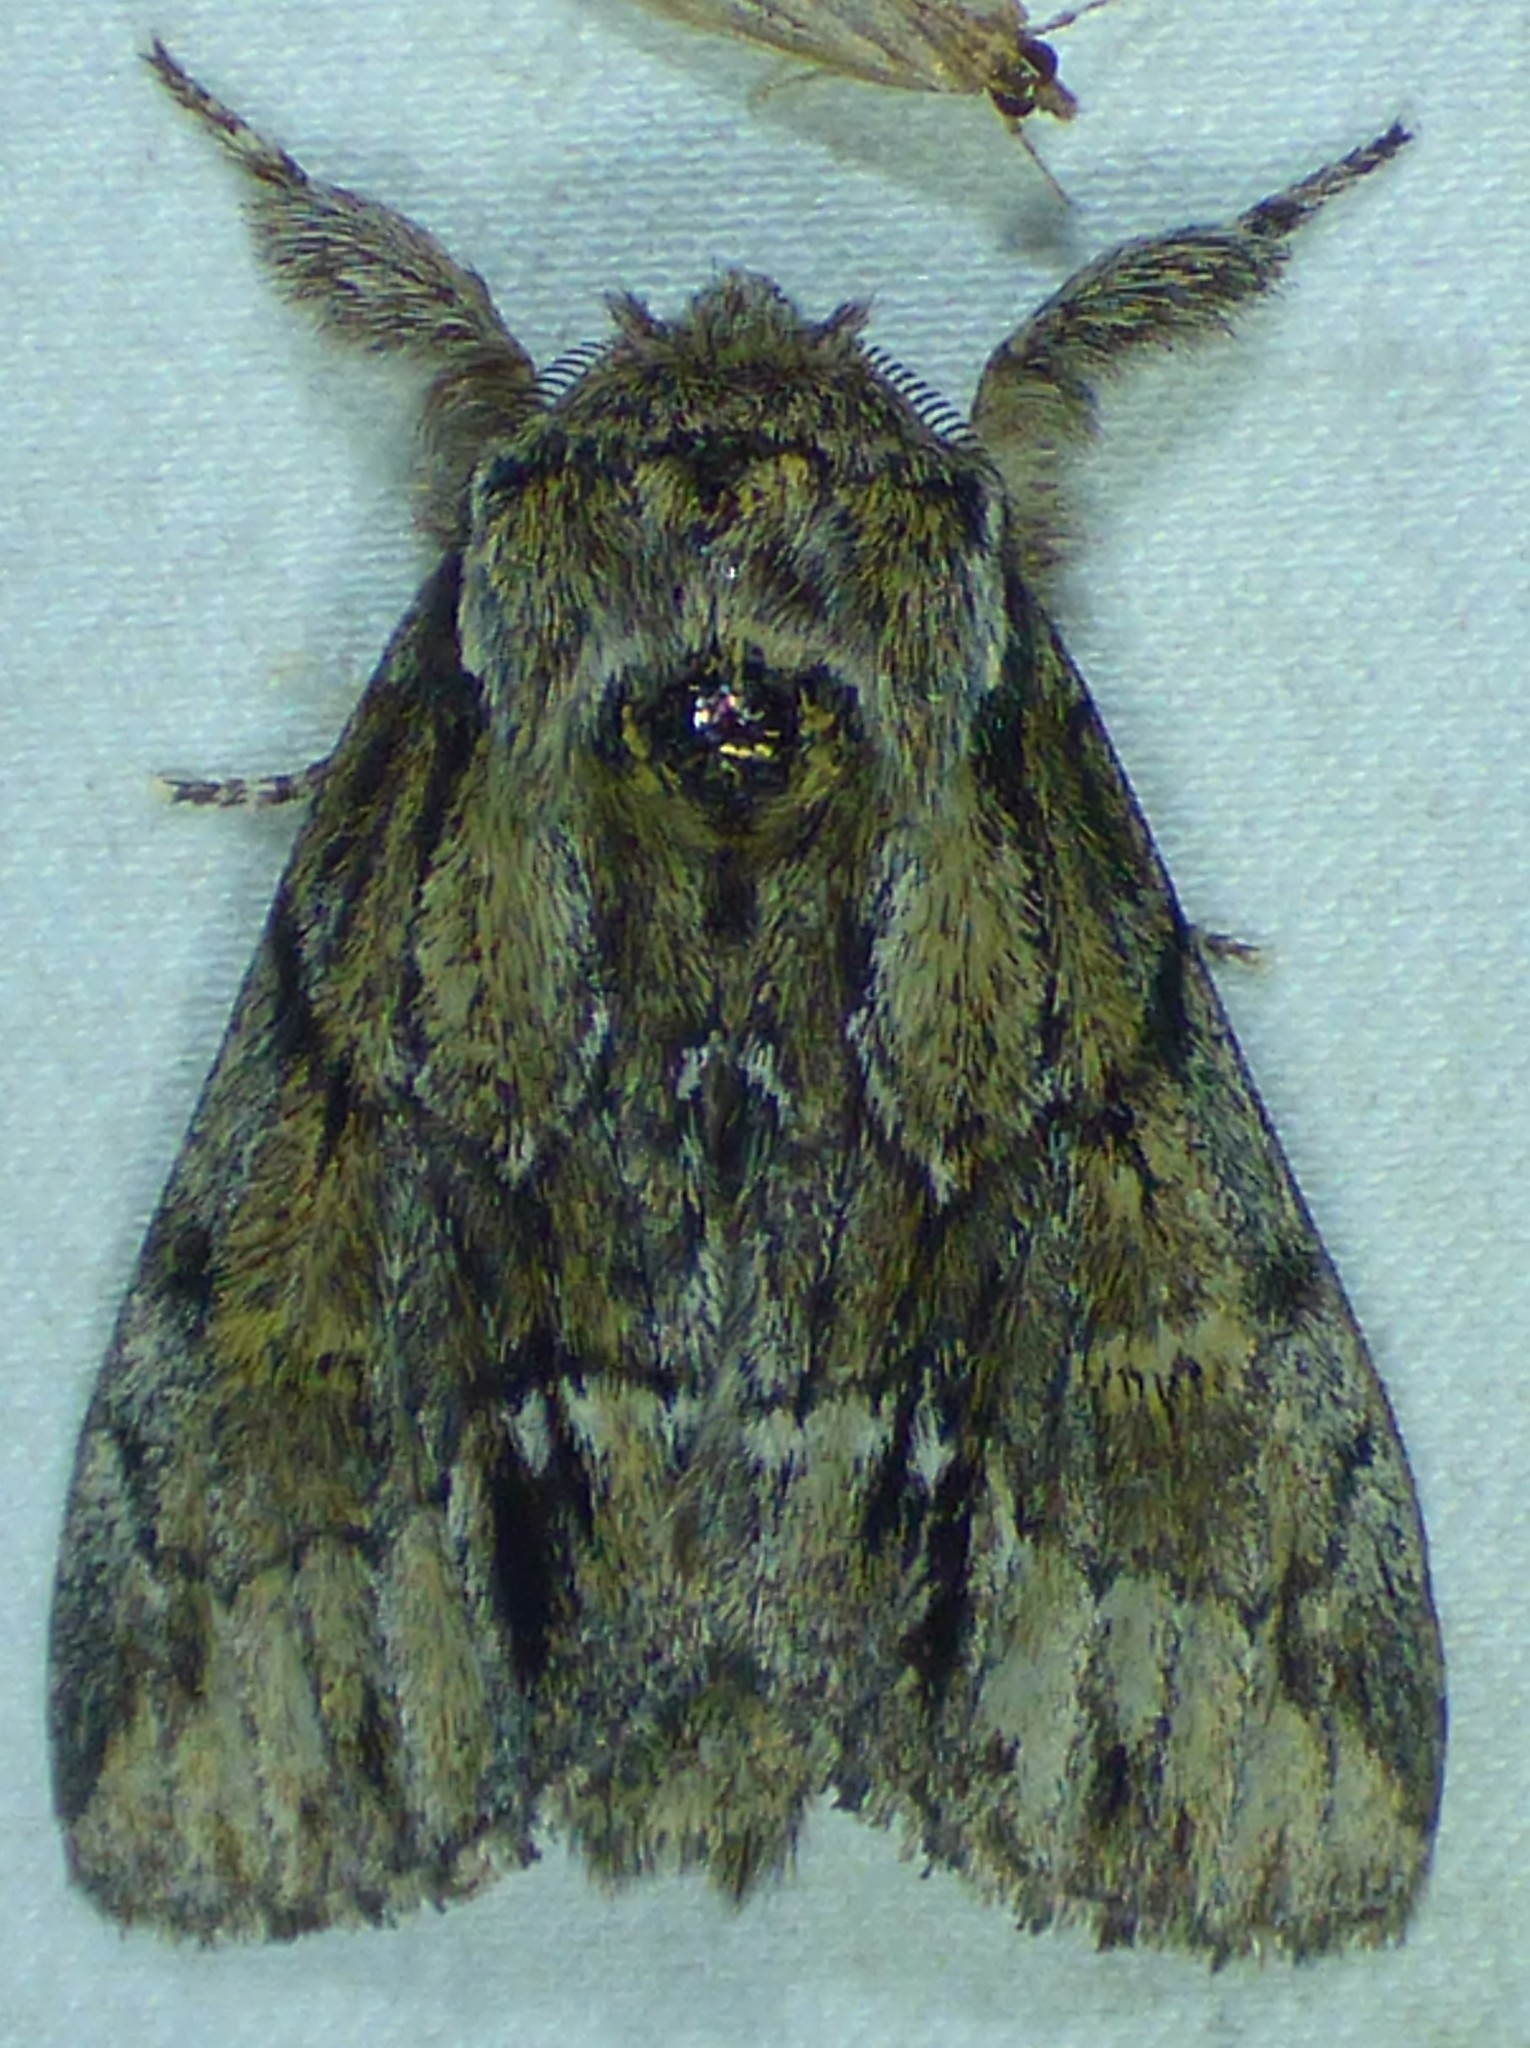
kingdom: Animalia
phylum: Arthropoda
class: Insecta
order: Lepidoptera
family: Notodontidae
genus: Paraeschra
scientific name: Paraeschra georgica
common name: Georgian prominent
